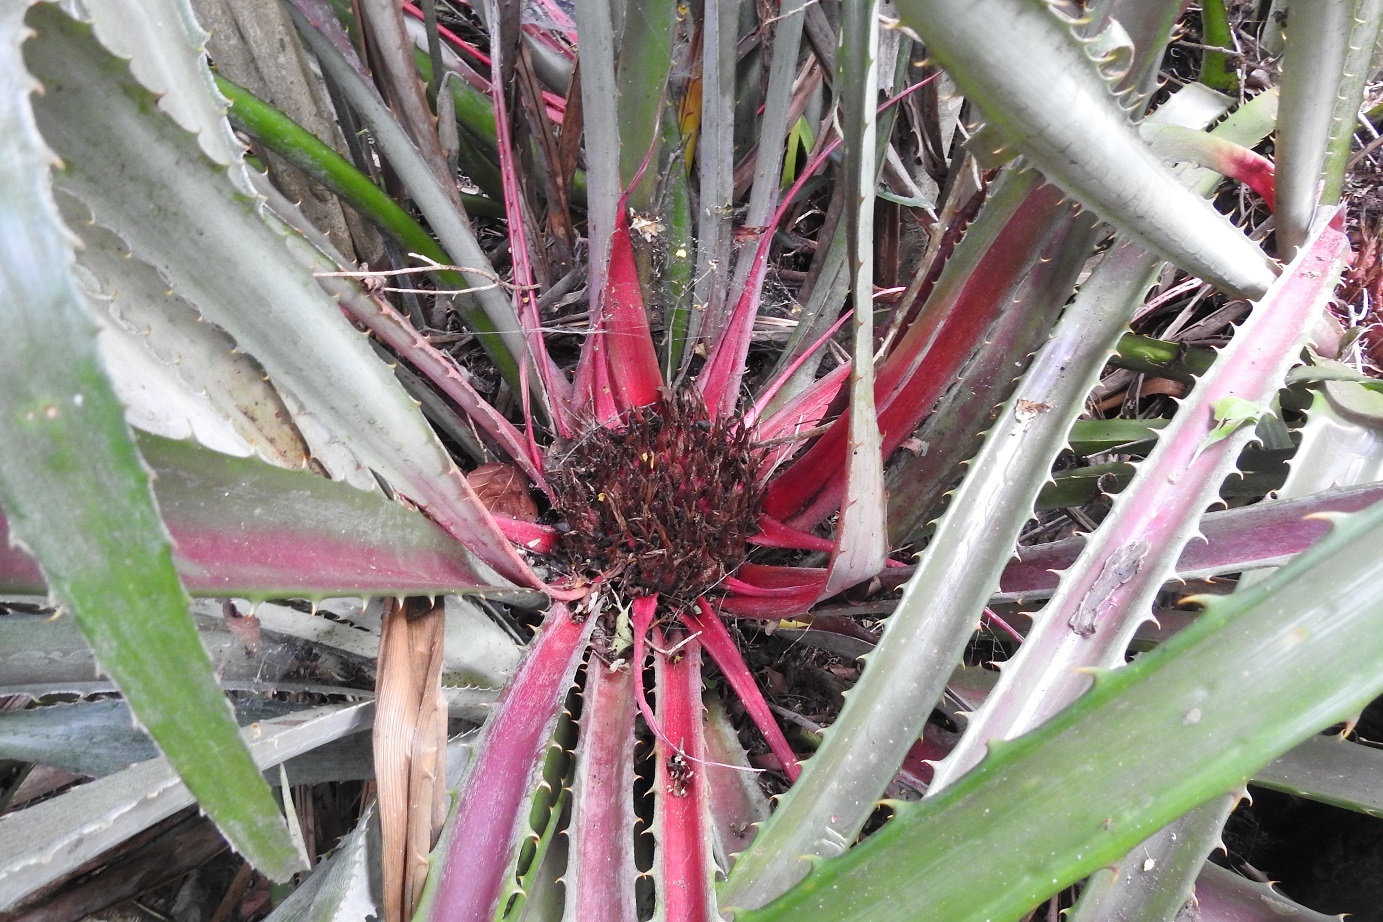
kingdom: Plantae
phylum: Tracheophyta
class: Liliopsida
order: Poales
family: Bromeliaceae
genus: Bromelia
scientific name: Bromelia karatas
